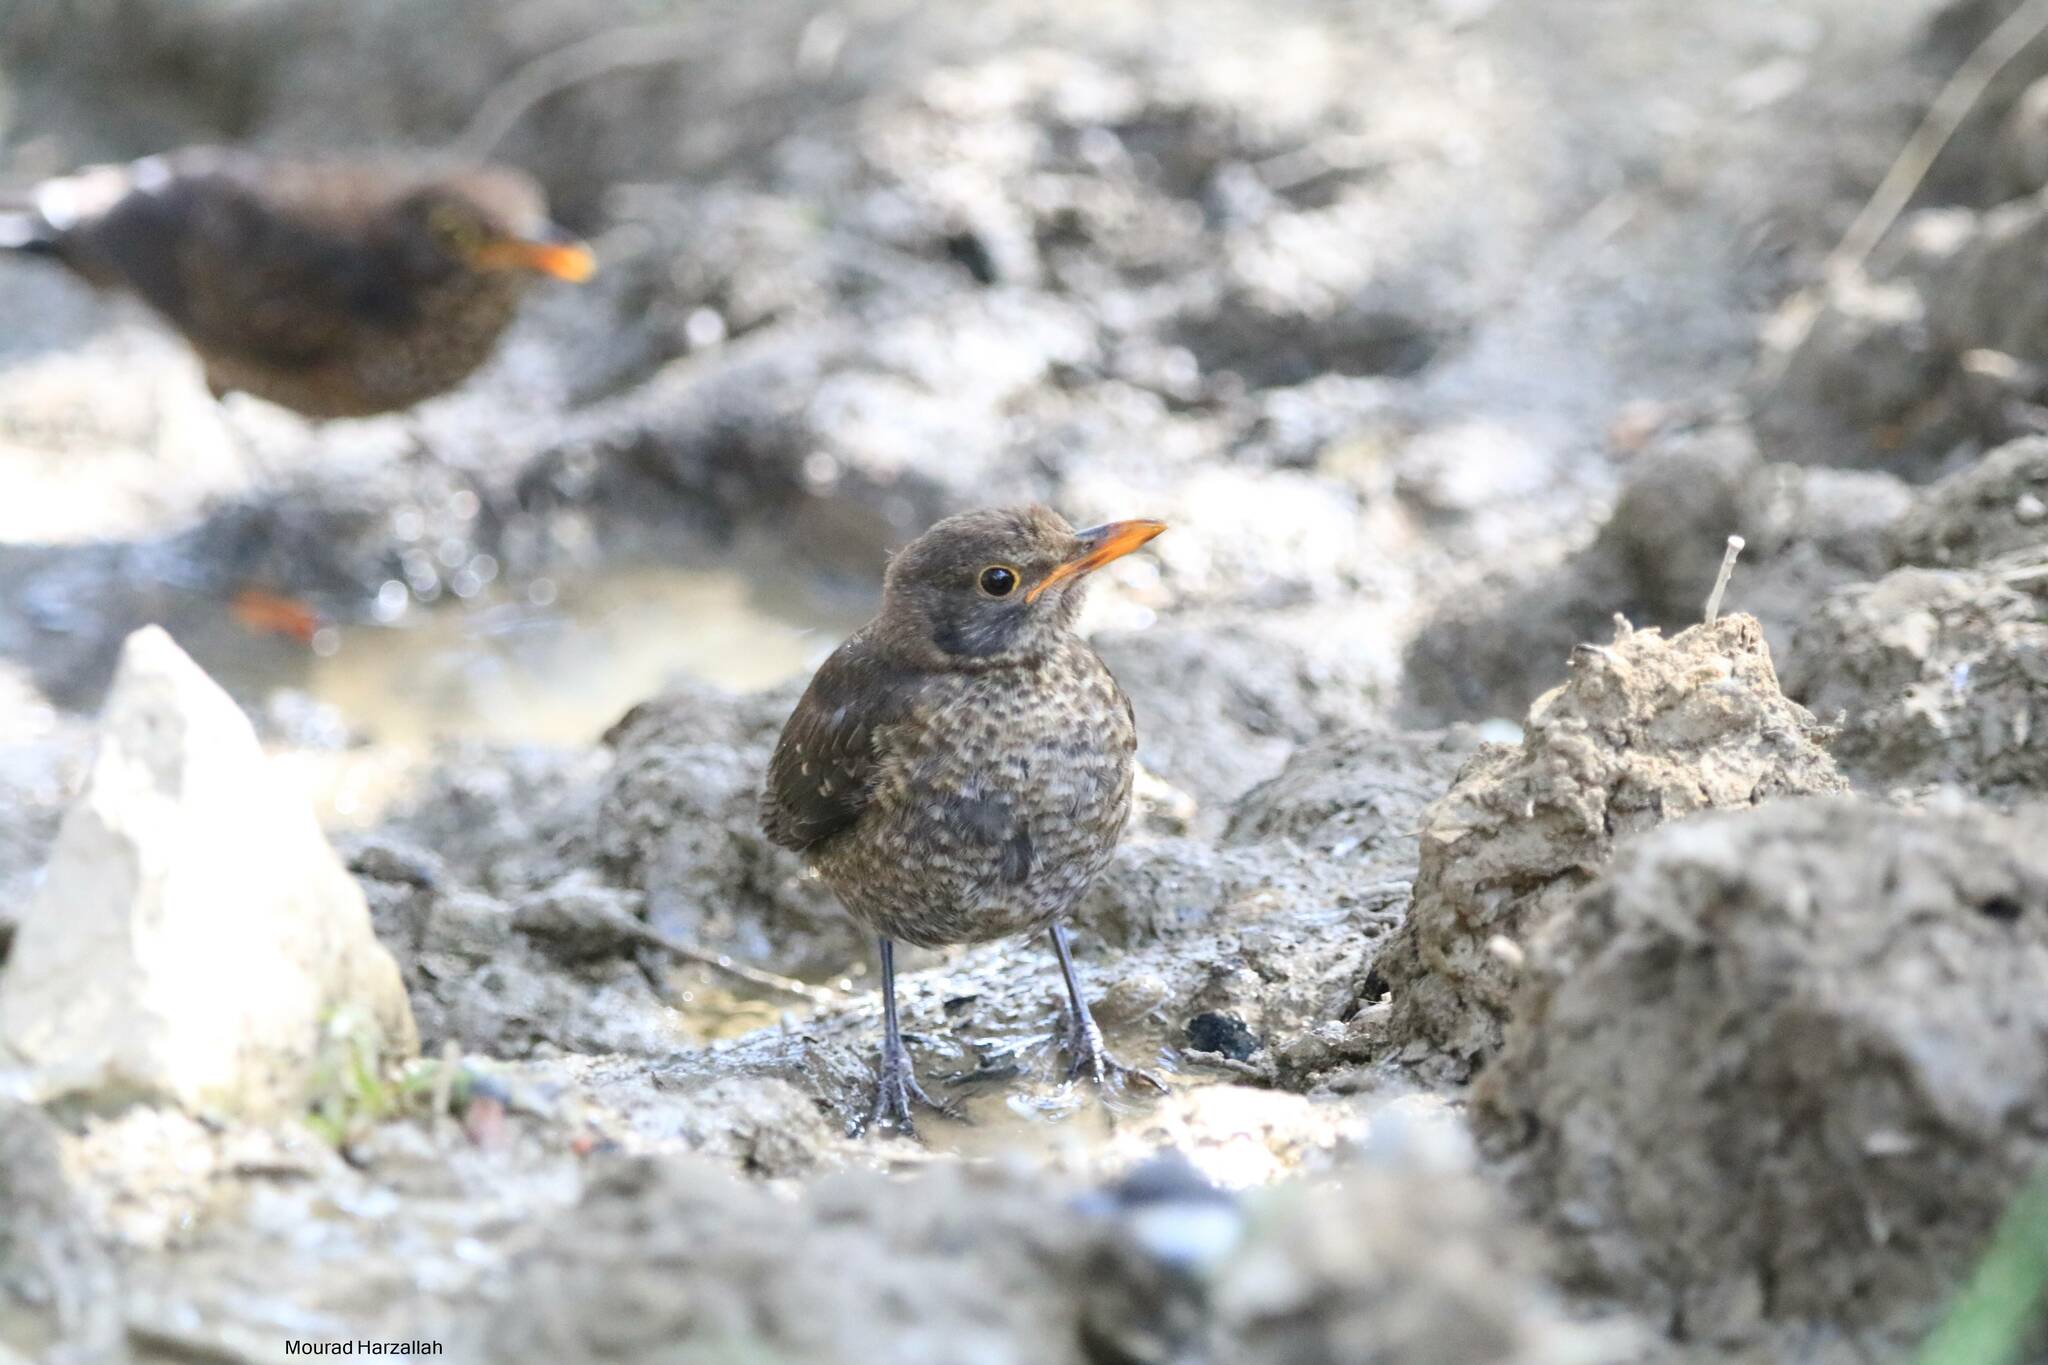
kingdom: Animalia
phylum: Chordata
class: Aves
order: Passeriformes
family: Turdidae
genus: Turdus
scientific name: Turdus merula
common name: Common blackbird
